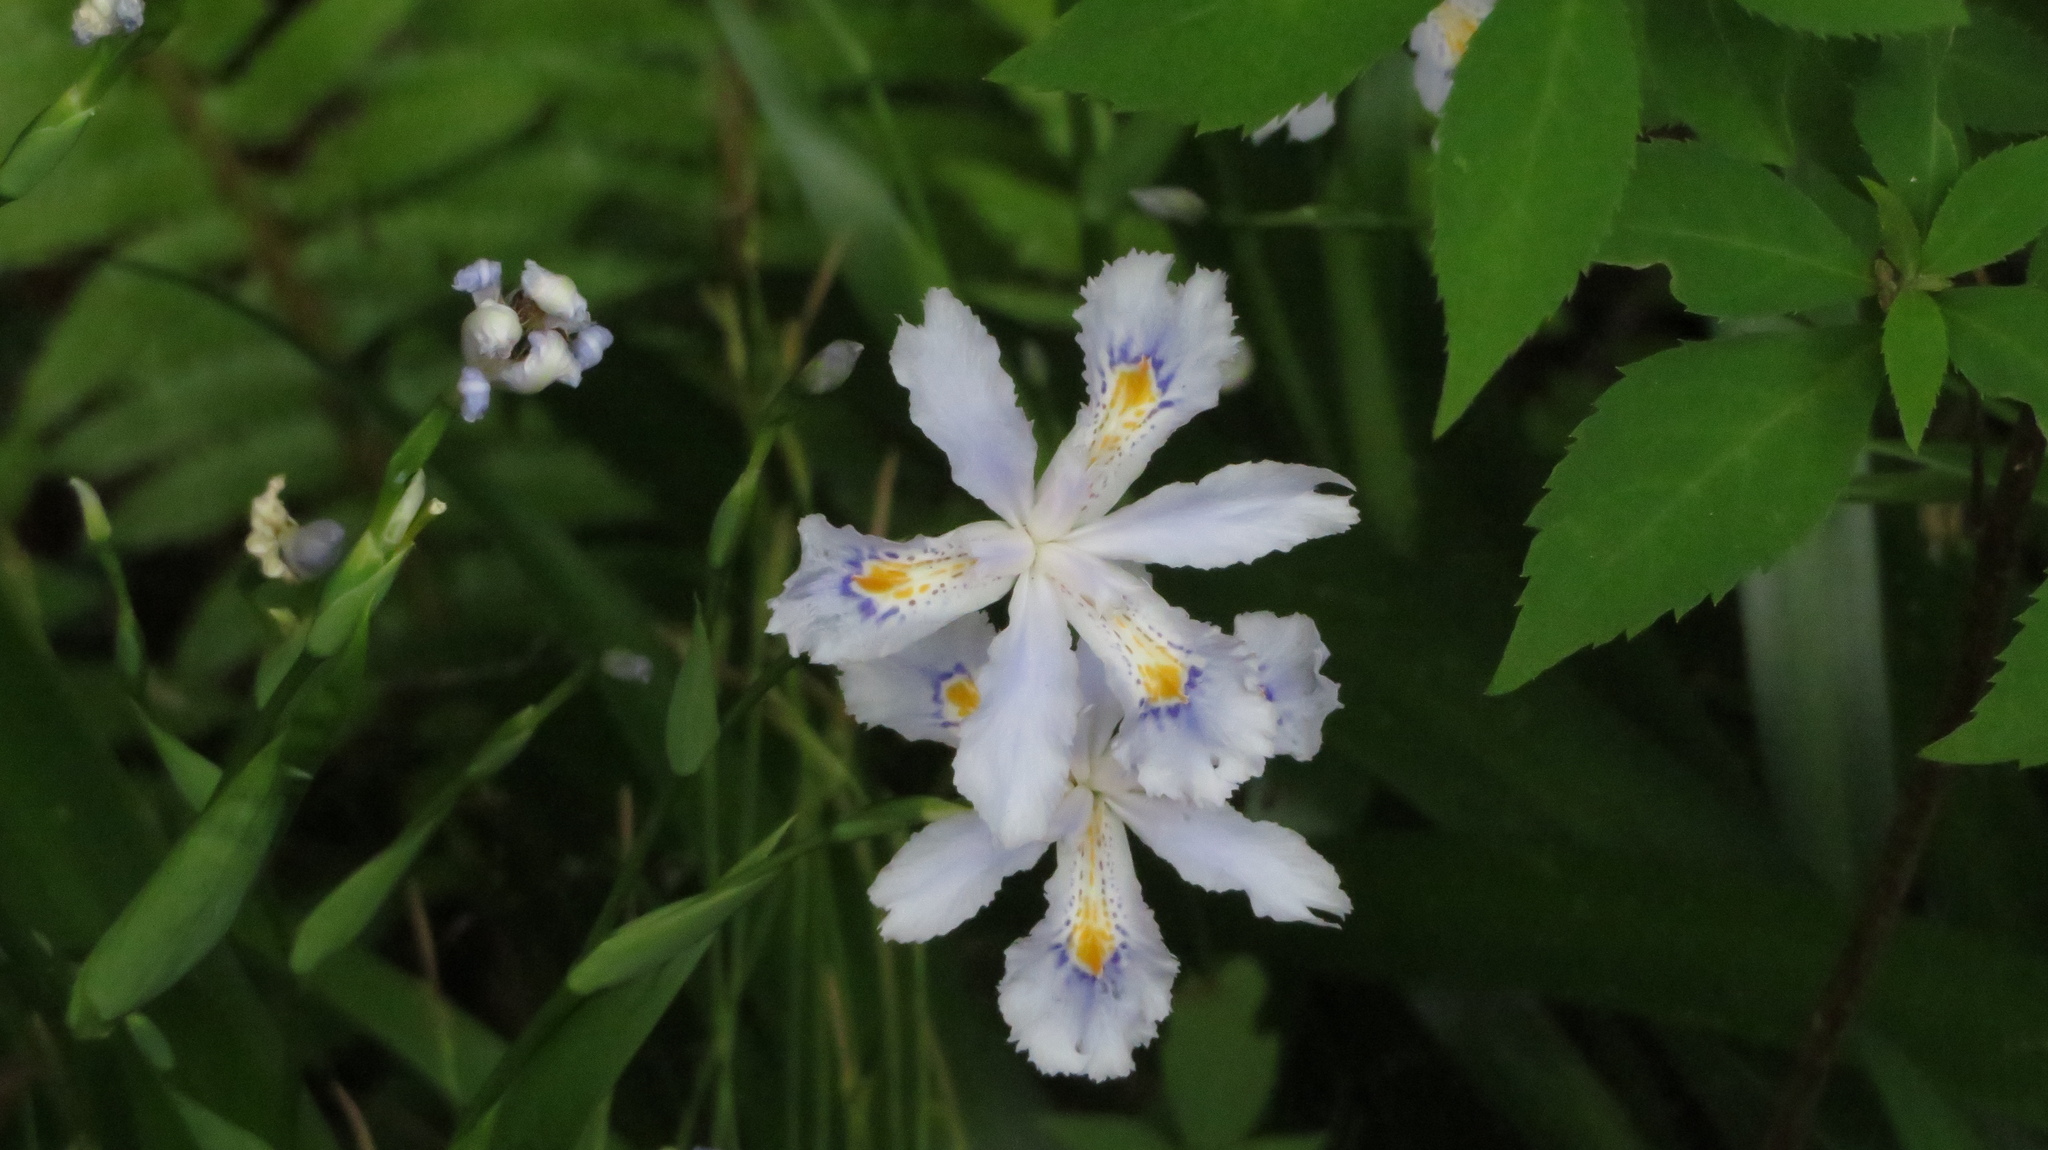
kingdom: Plantae
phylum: Tracheophyta
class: Liliopsida
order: Asparagales
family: Iridaceae
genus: Iris
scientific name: Iris japonica
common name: Butterfly-flower
